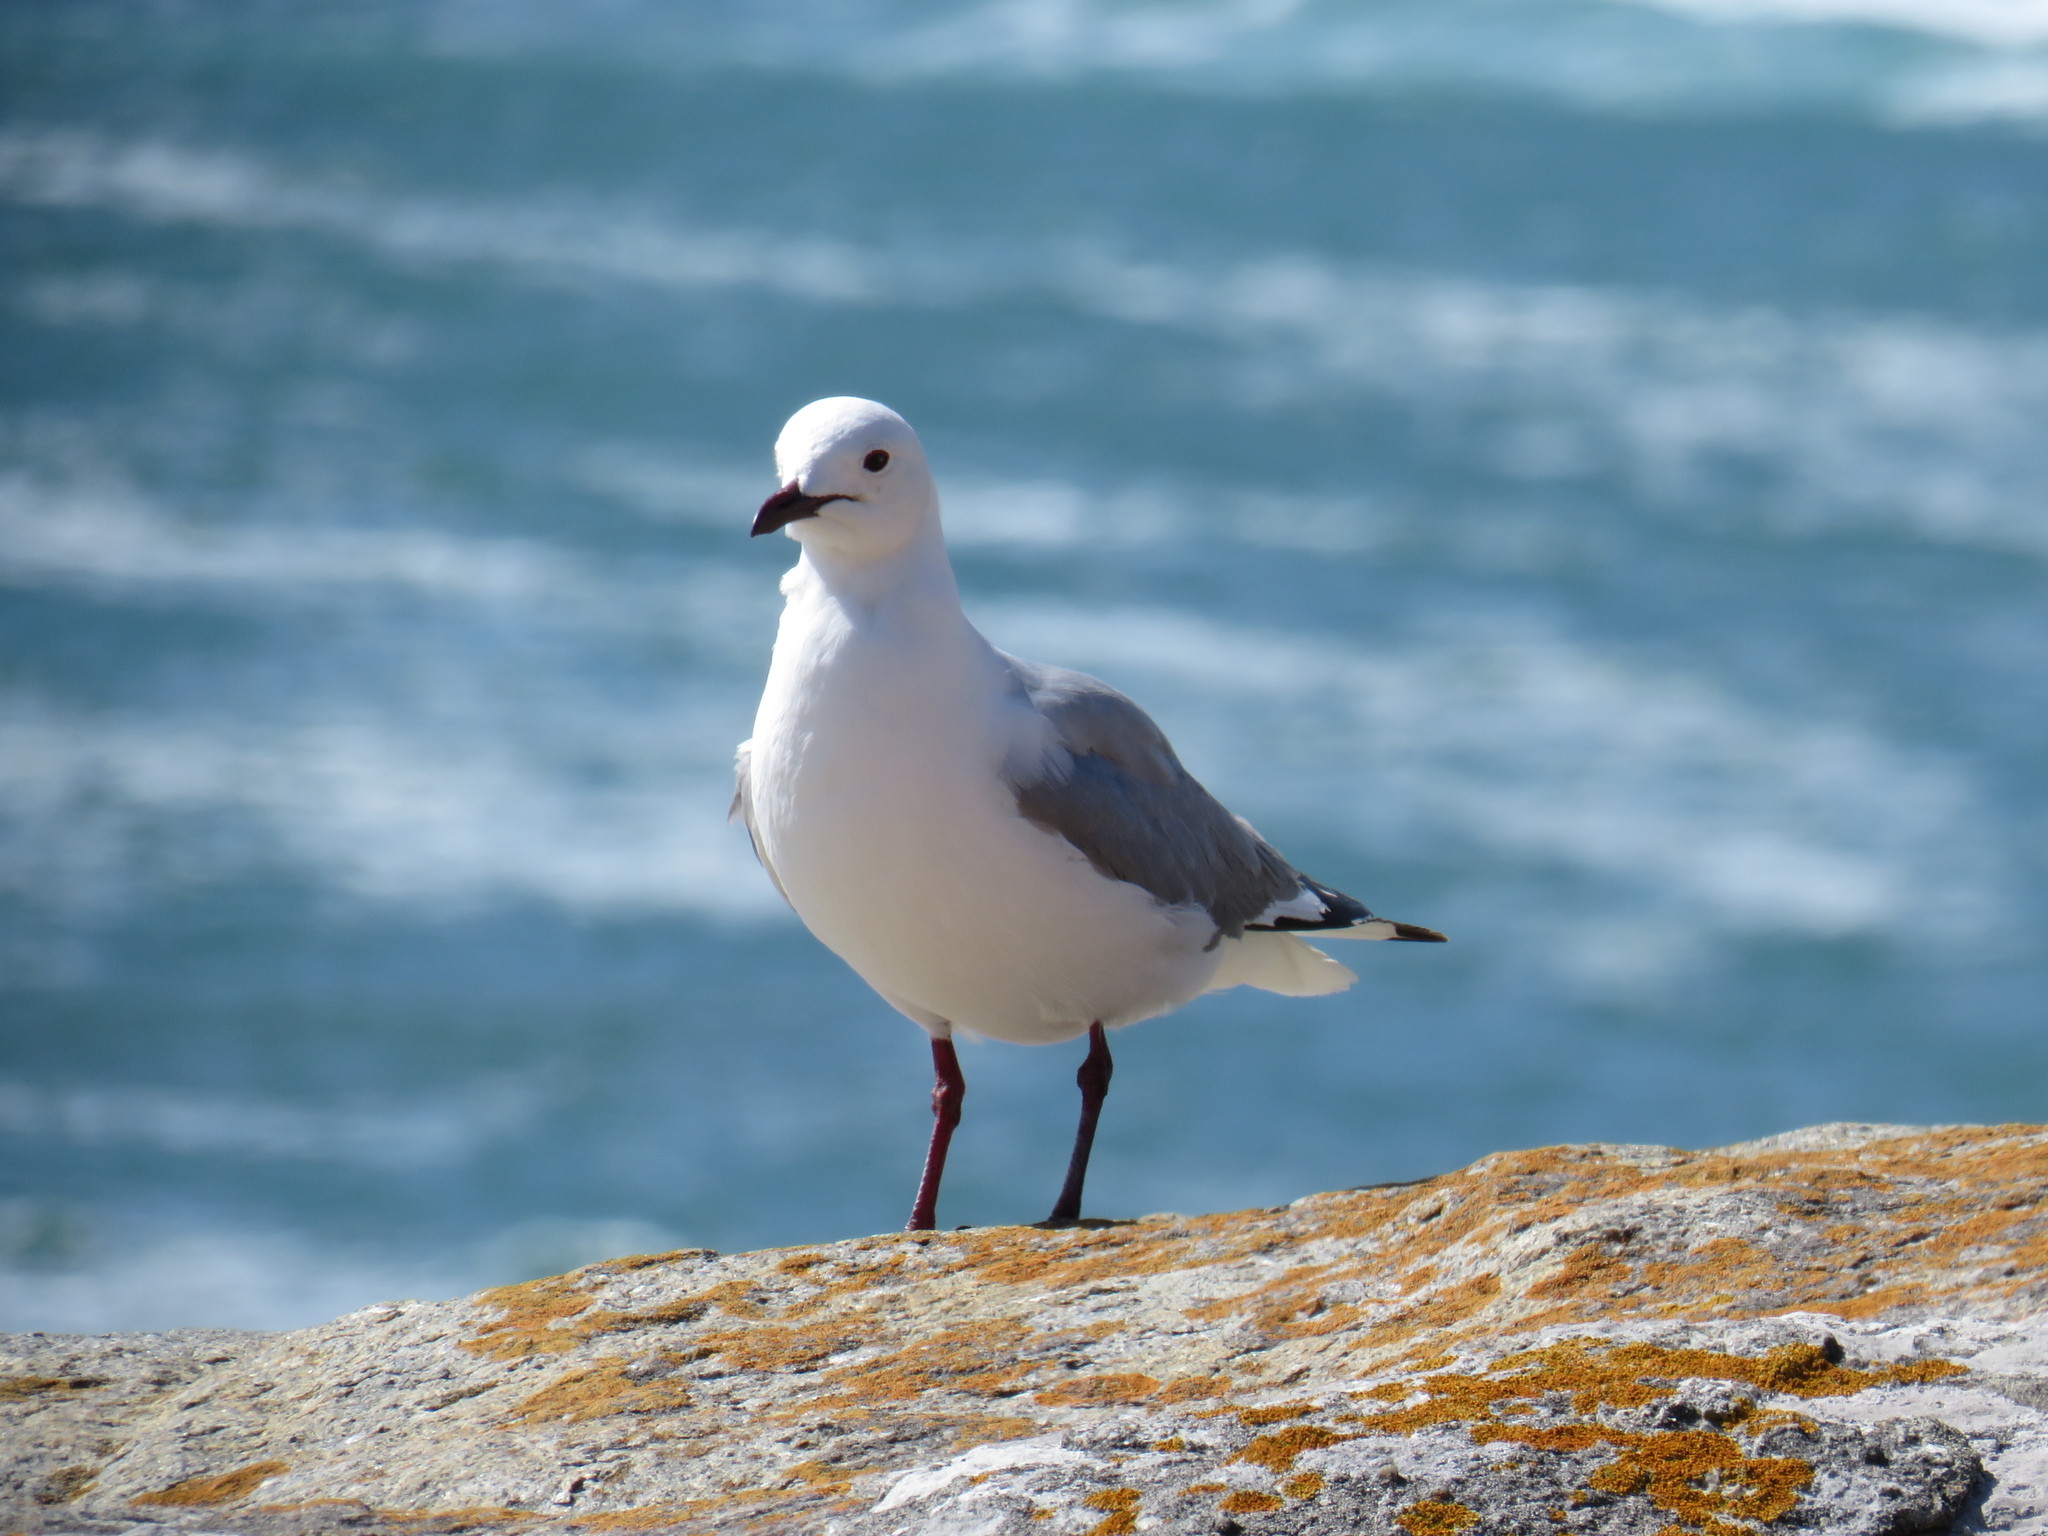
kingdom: Animalia
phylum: Chordata
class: Aves
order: Charadriiformes
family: Laridae
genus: Chroicocephalus
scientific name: Chroicocephalus hartlaubii
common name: Hartlaub's gull
